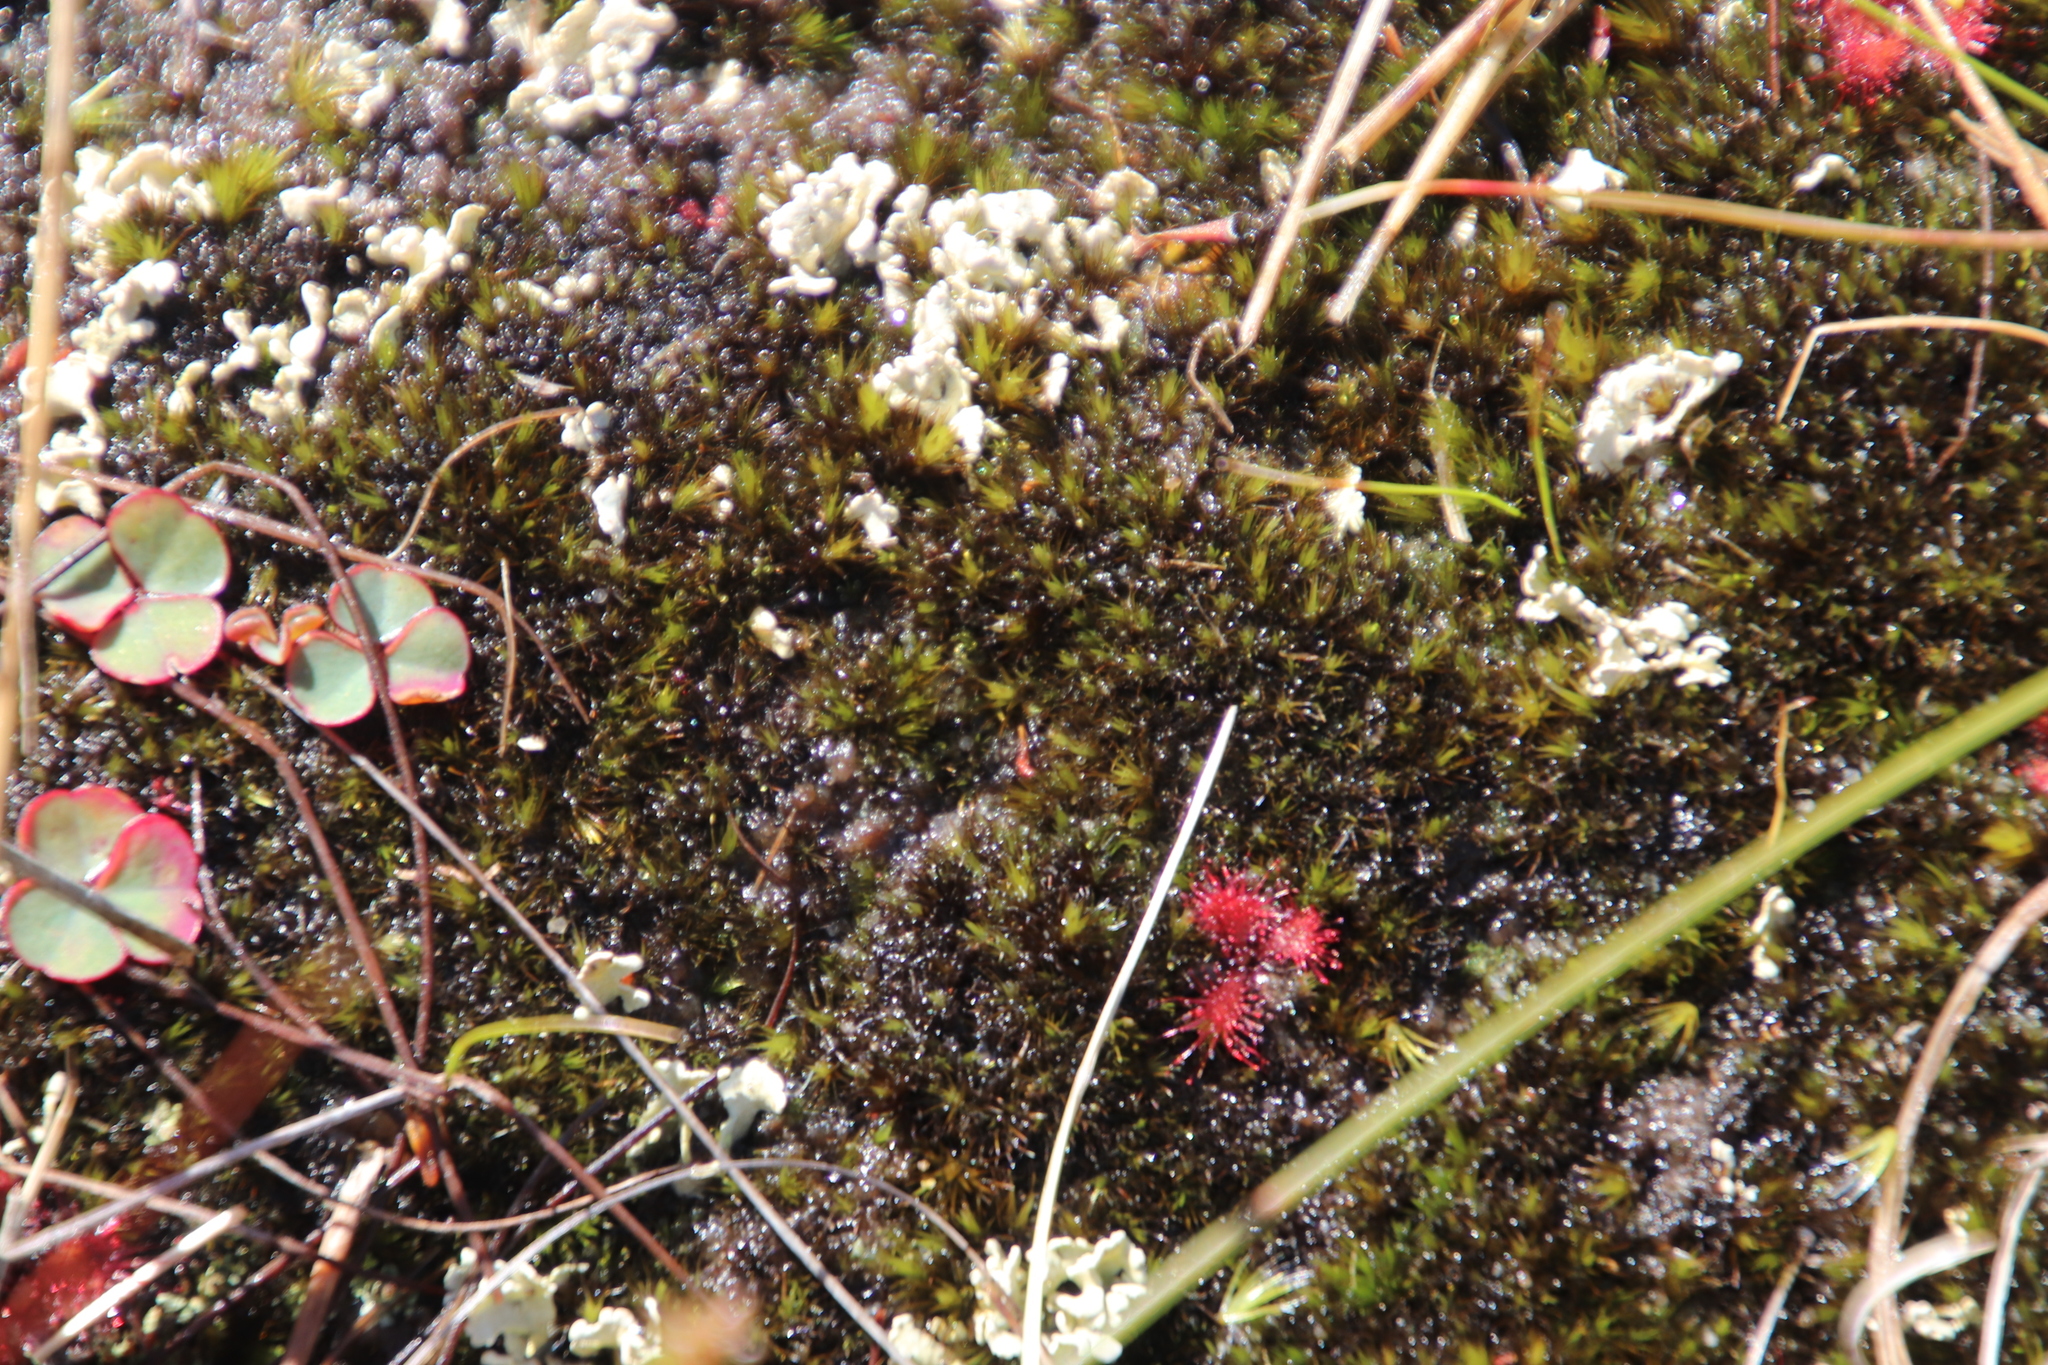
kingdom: Plantae
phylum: Tracheophyta
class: Magnoliopsida
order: Caryophyllales
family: Droseraceae
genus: Drosera
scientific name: Drosera trinervia
